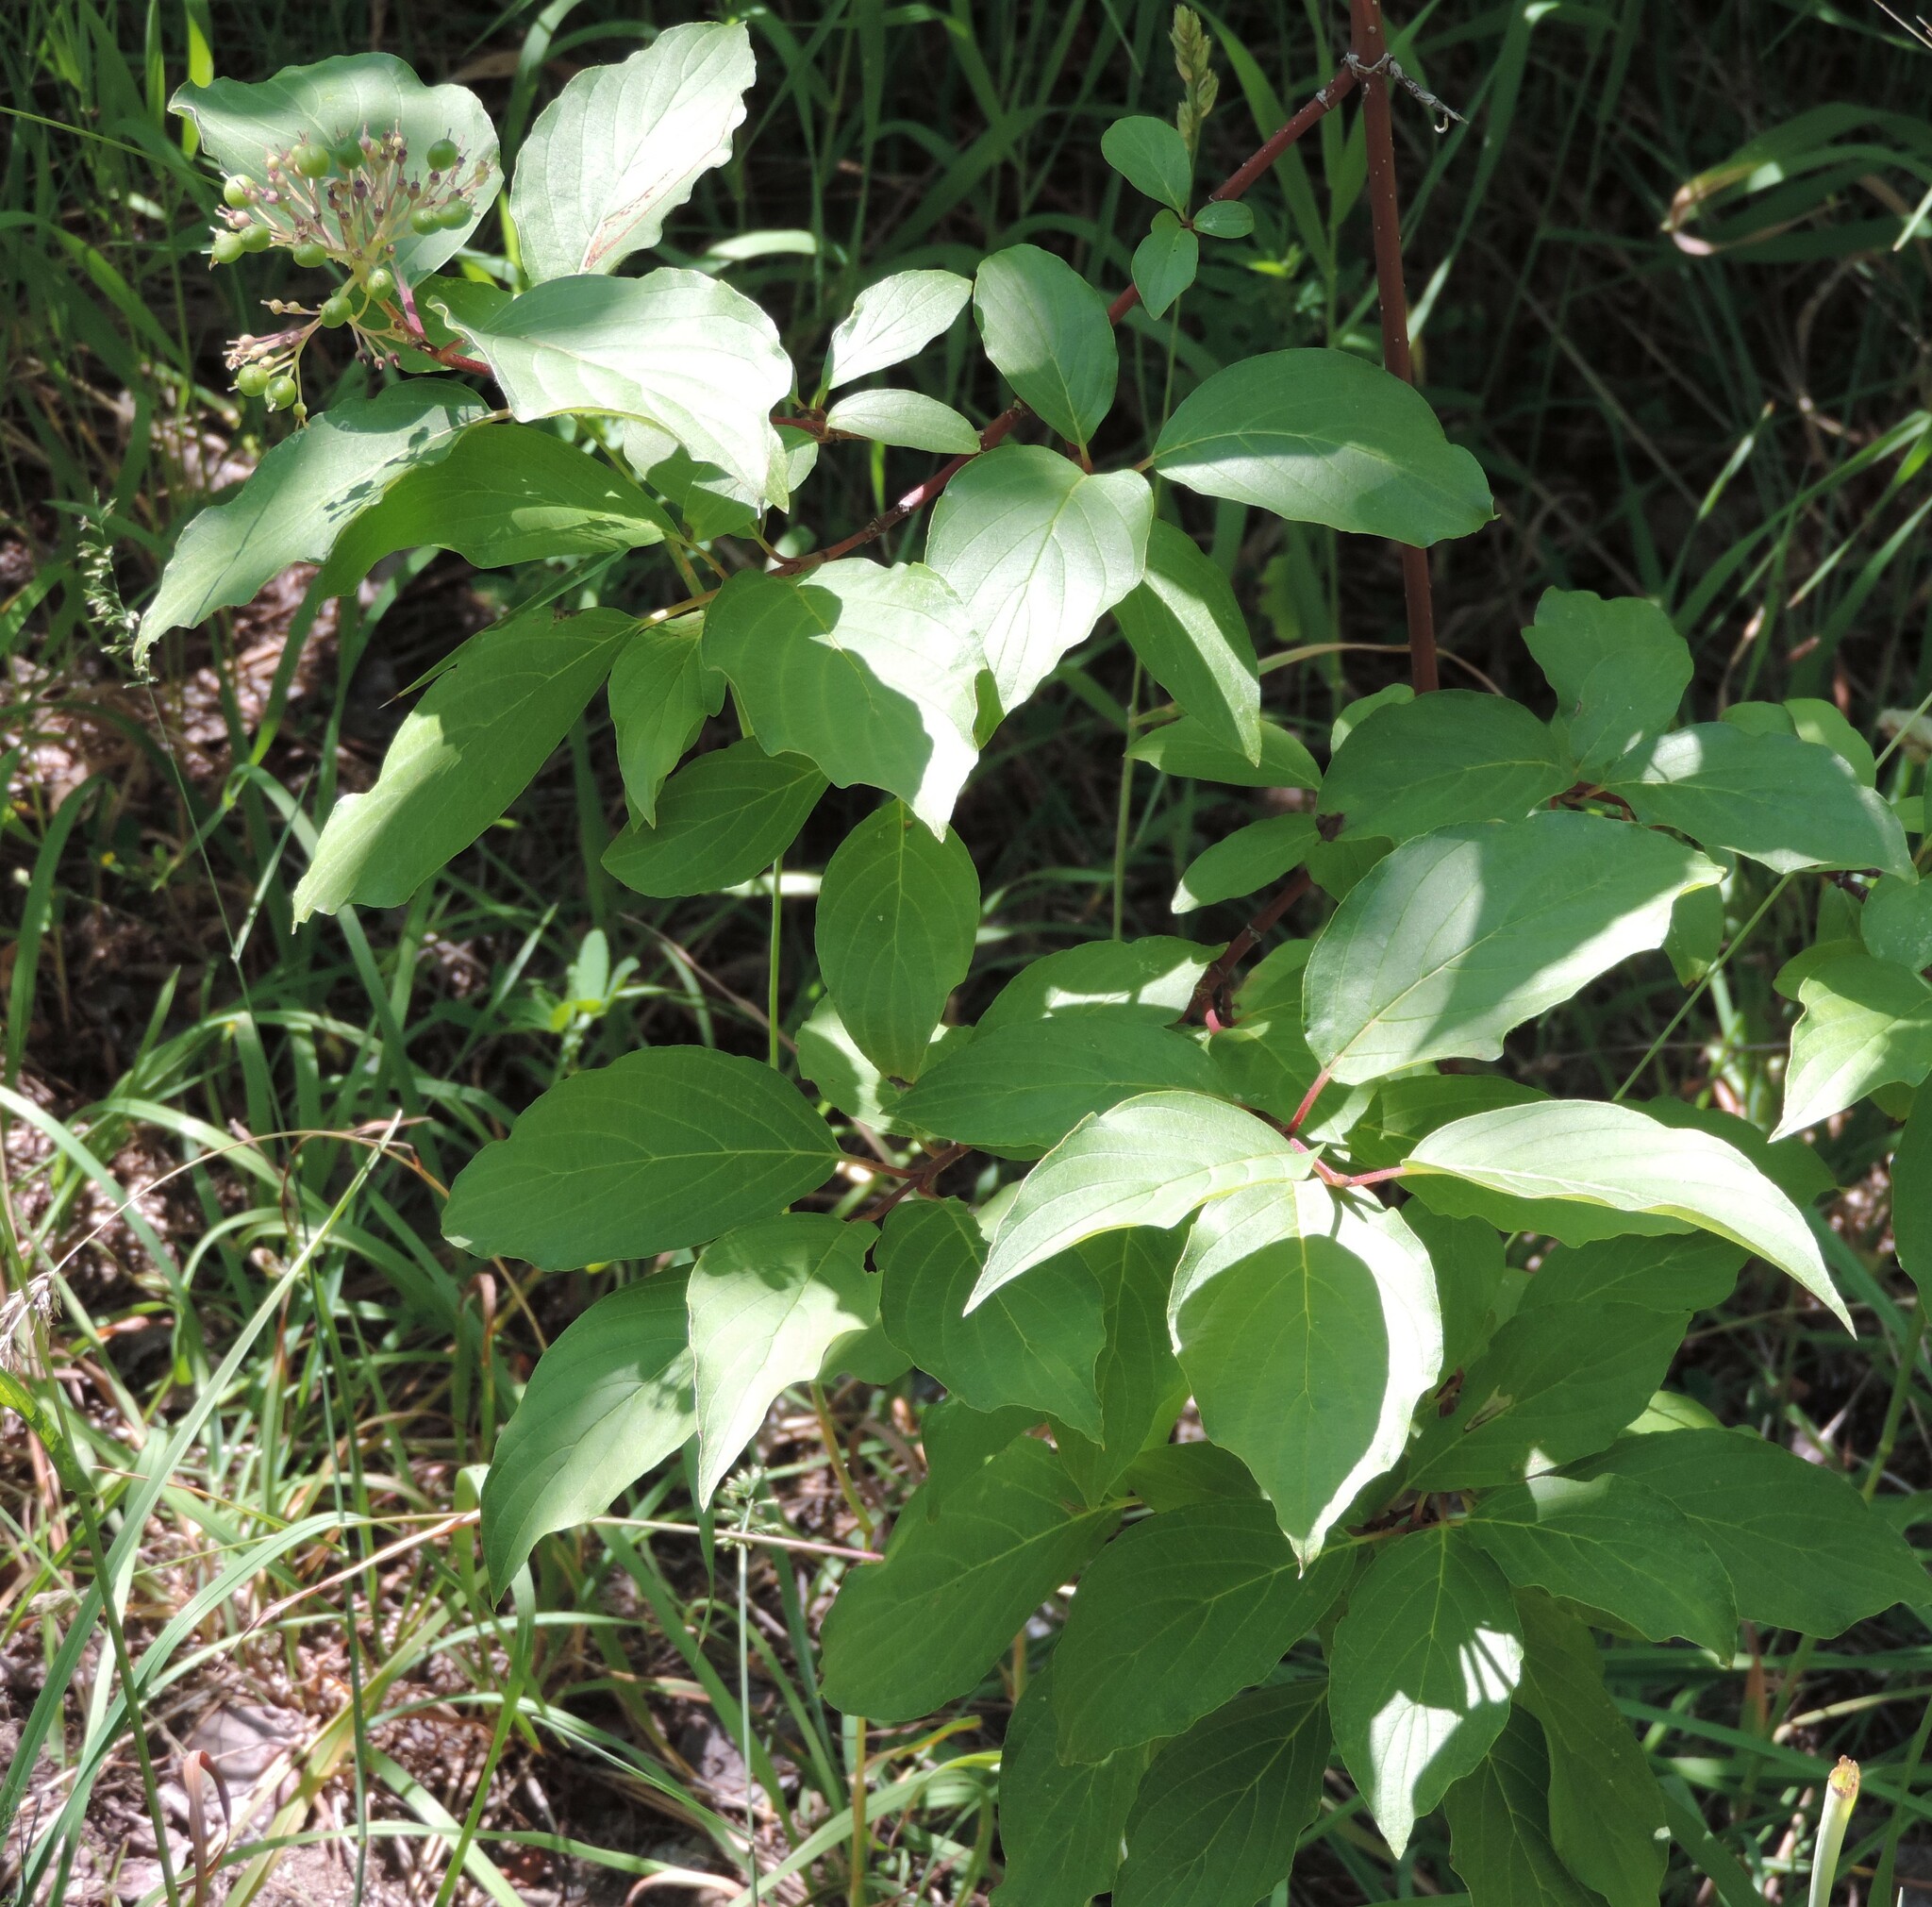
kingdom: Plantae
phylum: Tracheophyta
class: Magnoliopsida
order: Cornales
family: Cornaceae
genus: Cornus
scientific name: Cornus sericea
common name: Red-osier dogwood
